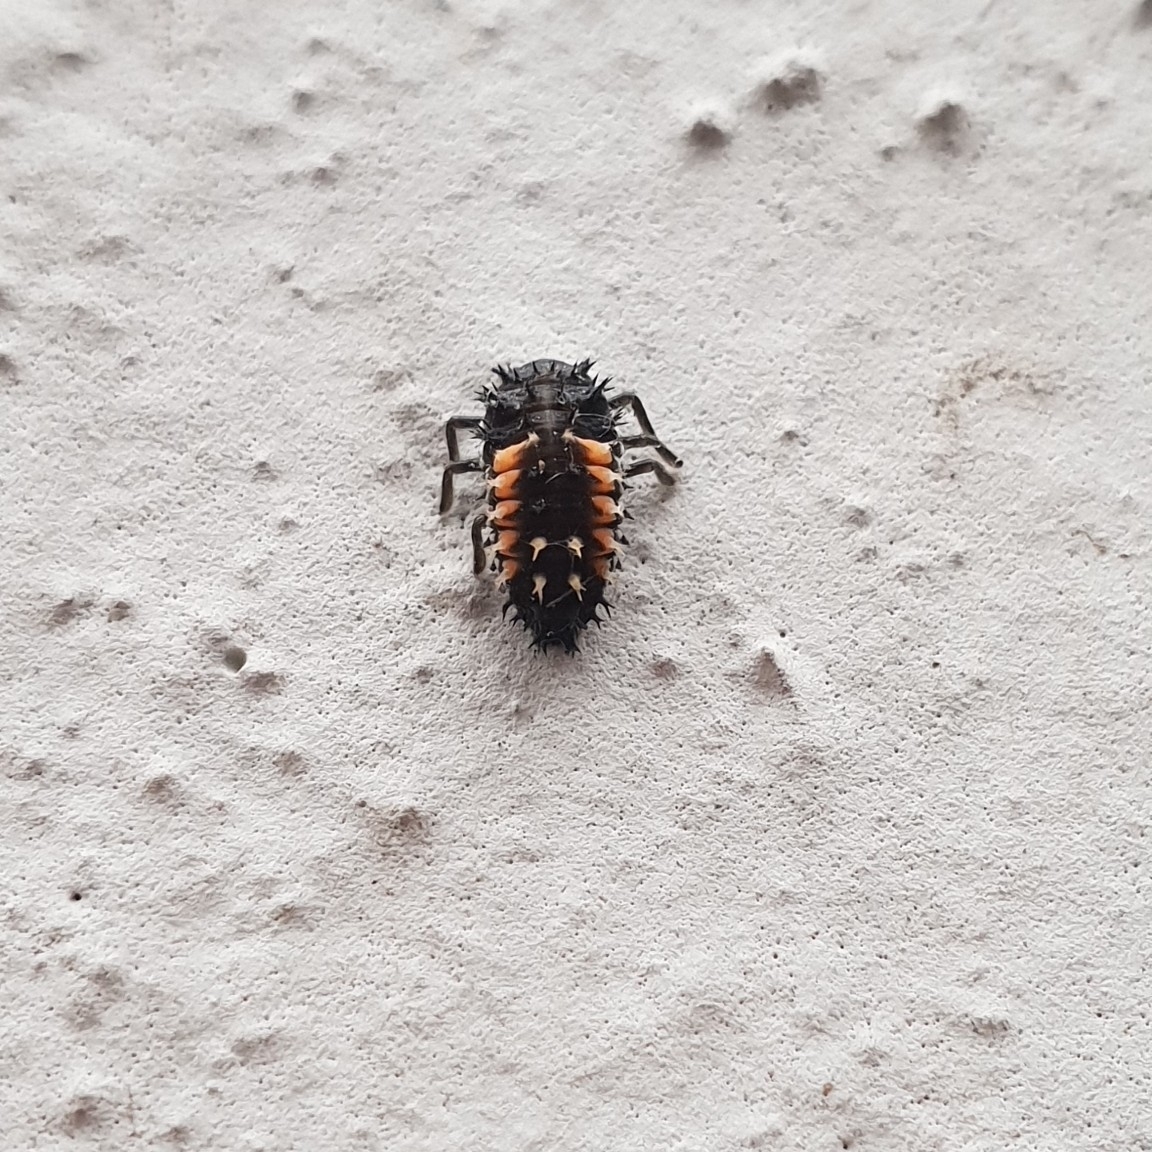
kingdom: Animalia
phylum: Arthropoda
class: Insecta
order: Coleoptera
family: Coccinellidae
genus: Harmonia
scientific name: Harmonia axyridis
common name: Harlequin ladybird
